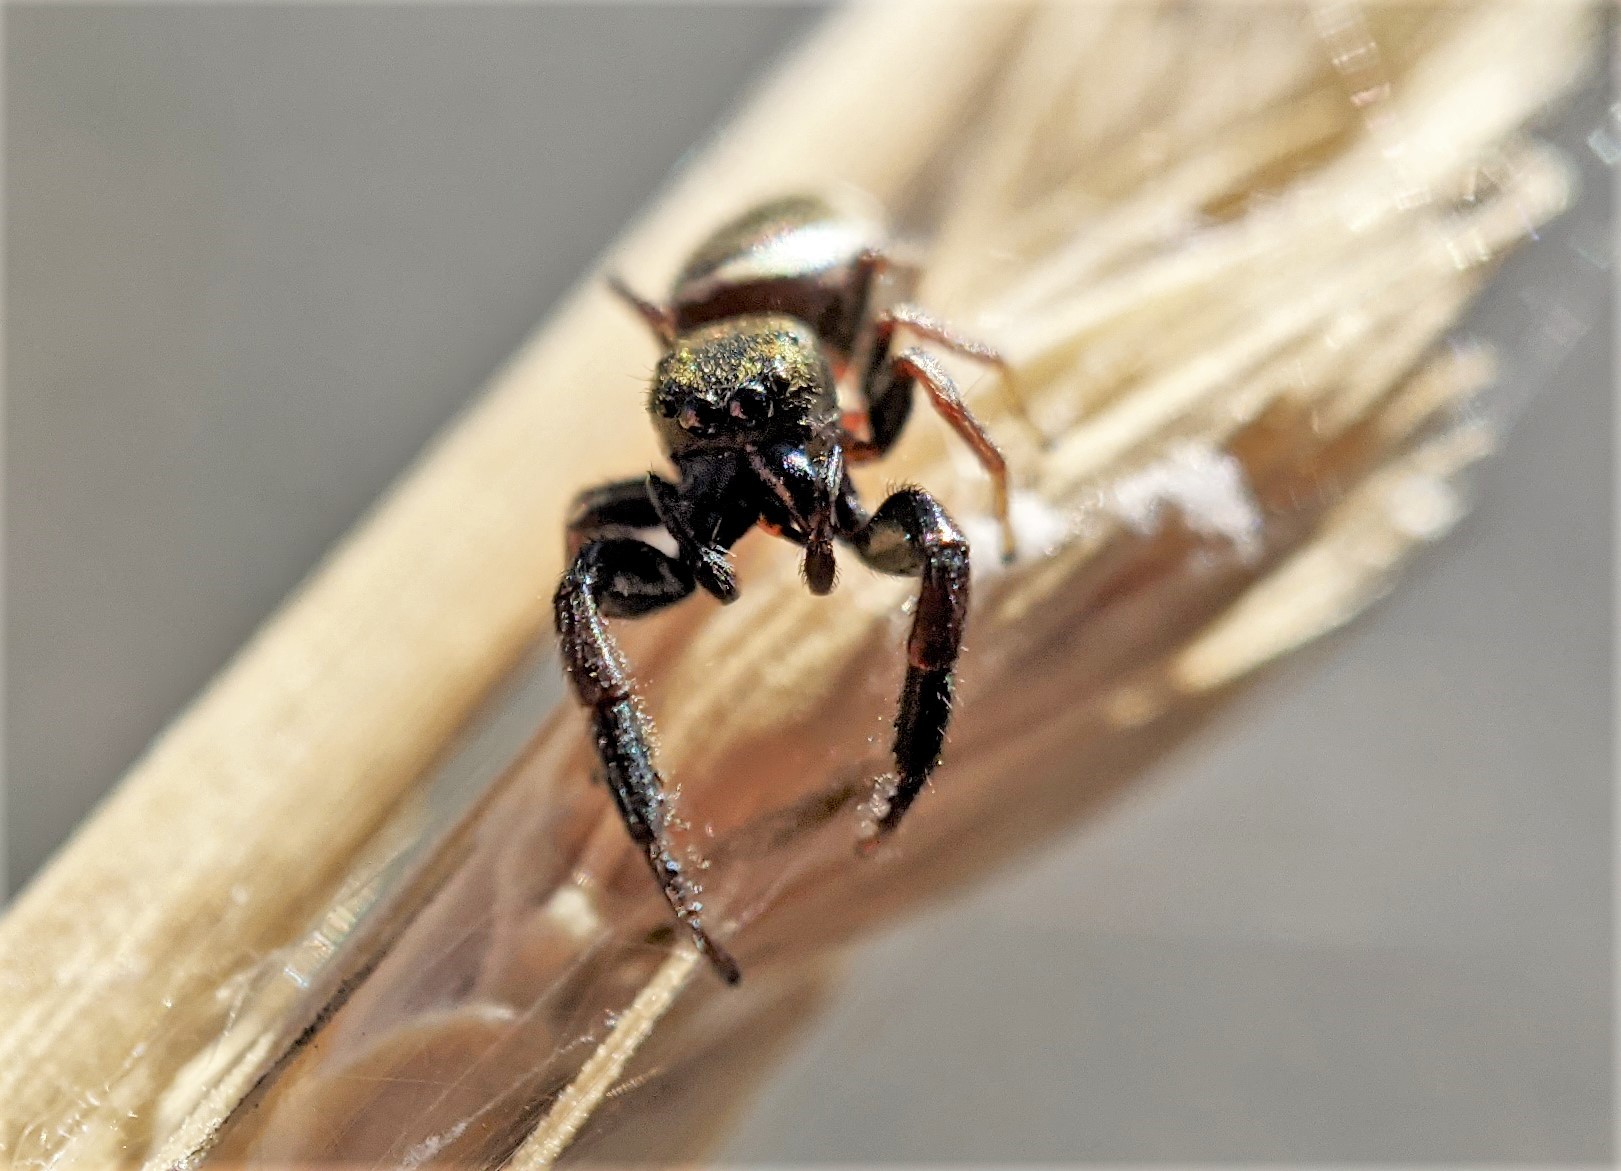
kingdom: Animalia
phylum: Arthropoda
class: Arachnida
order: Araneae
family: Salticidae
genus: Sassacus
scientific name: Sassacus vitis
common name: Jumping spiders
